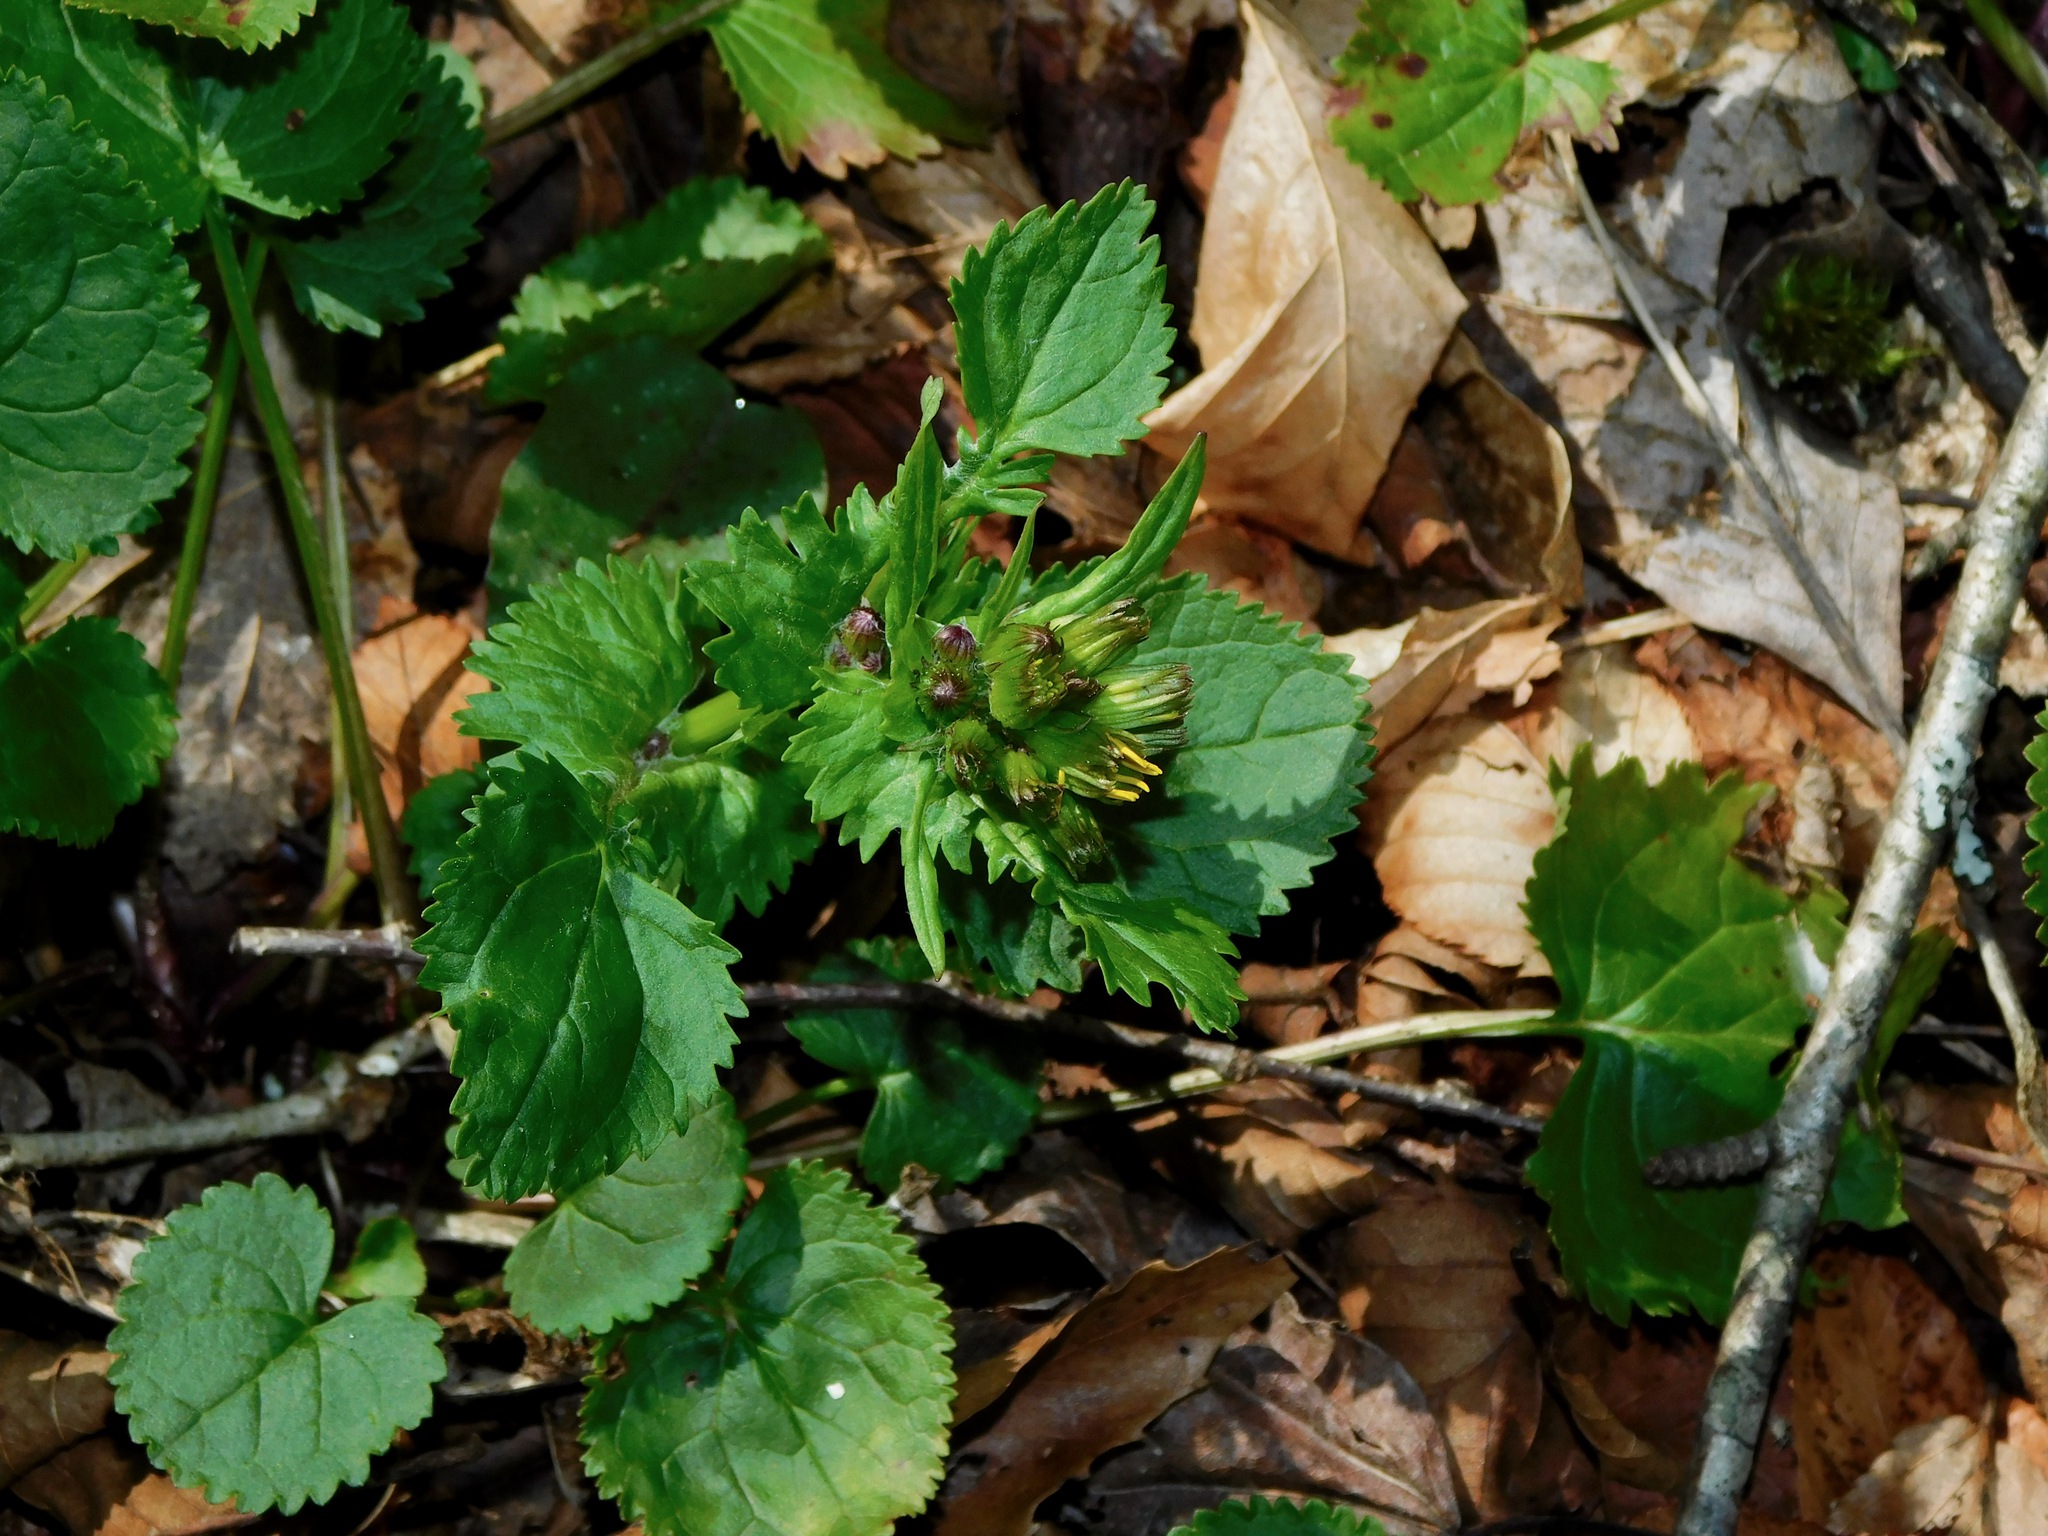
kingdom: Plantae
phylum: Tracheophyta
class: Magnoliopsida
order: Asterales
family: Asteraceae
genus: Packera
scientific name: Packera aurea
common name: Golden groundsel
